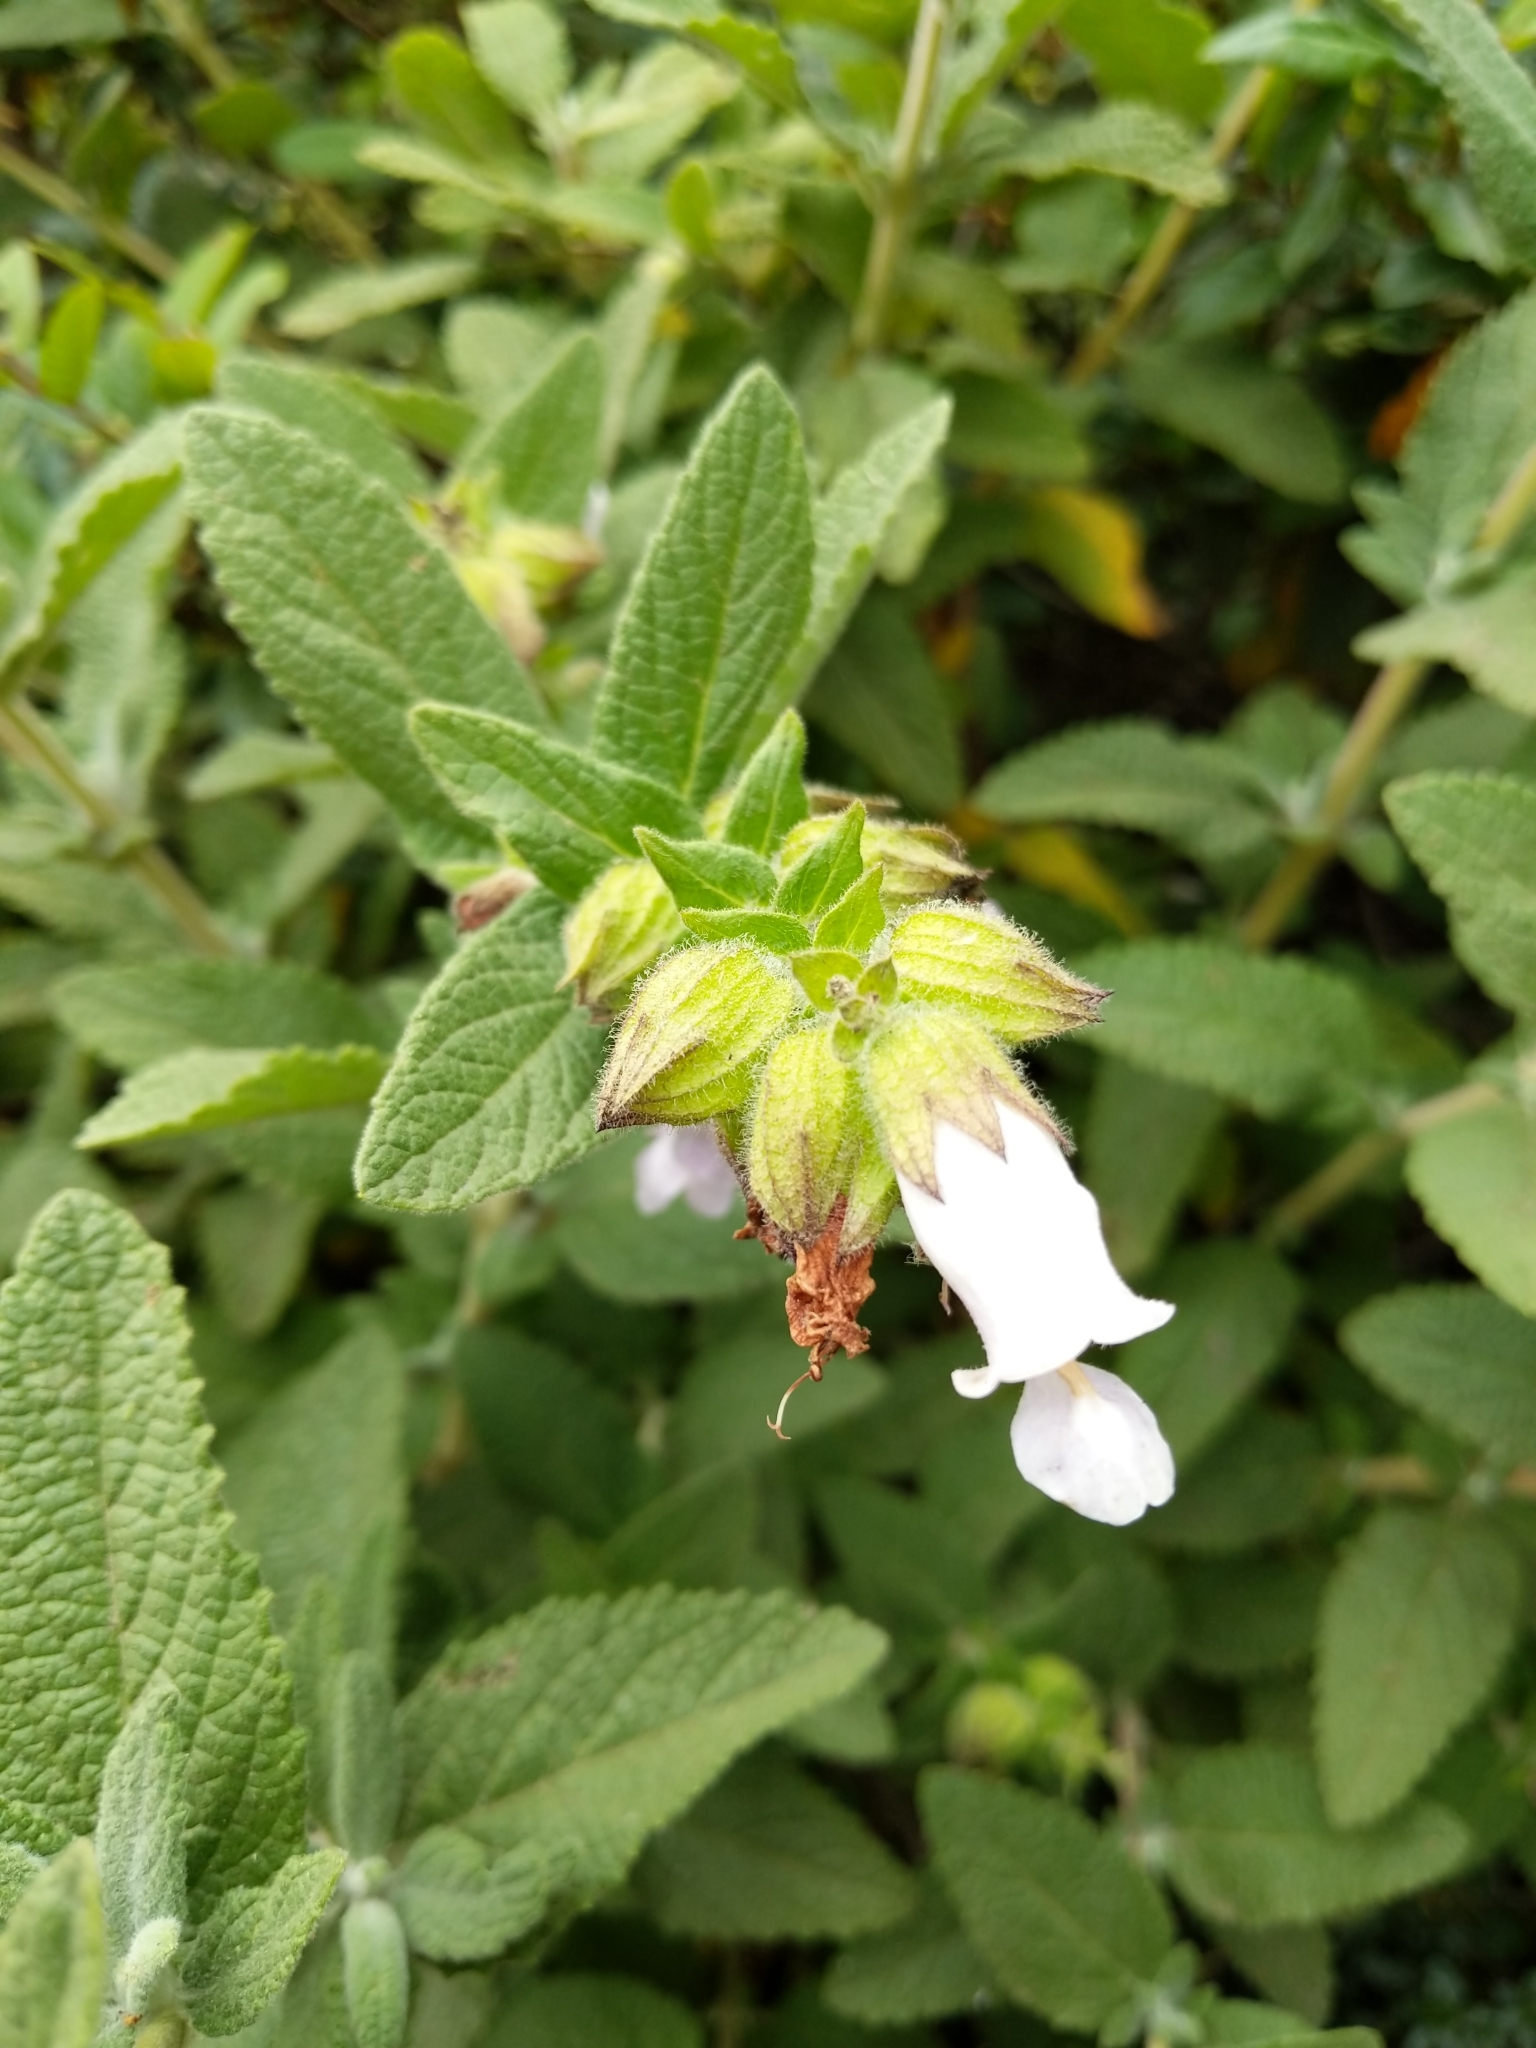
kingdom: Plantae
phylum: Tracheophyta
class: Magnoliopsida
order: Lamiales
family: Lamiaceae
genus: Lepechinia
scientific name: Lepechinia calycina
